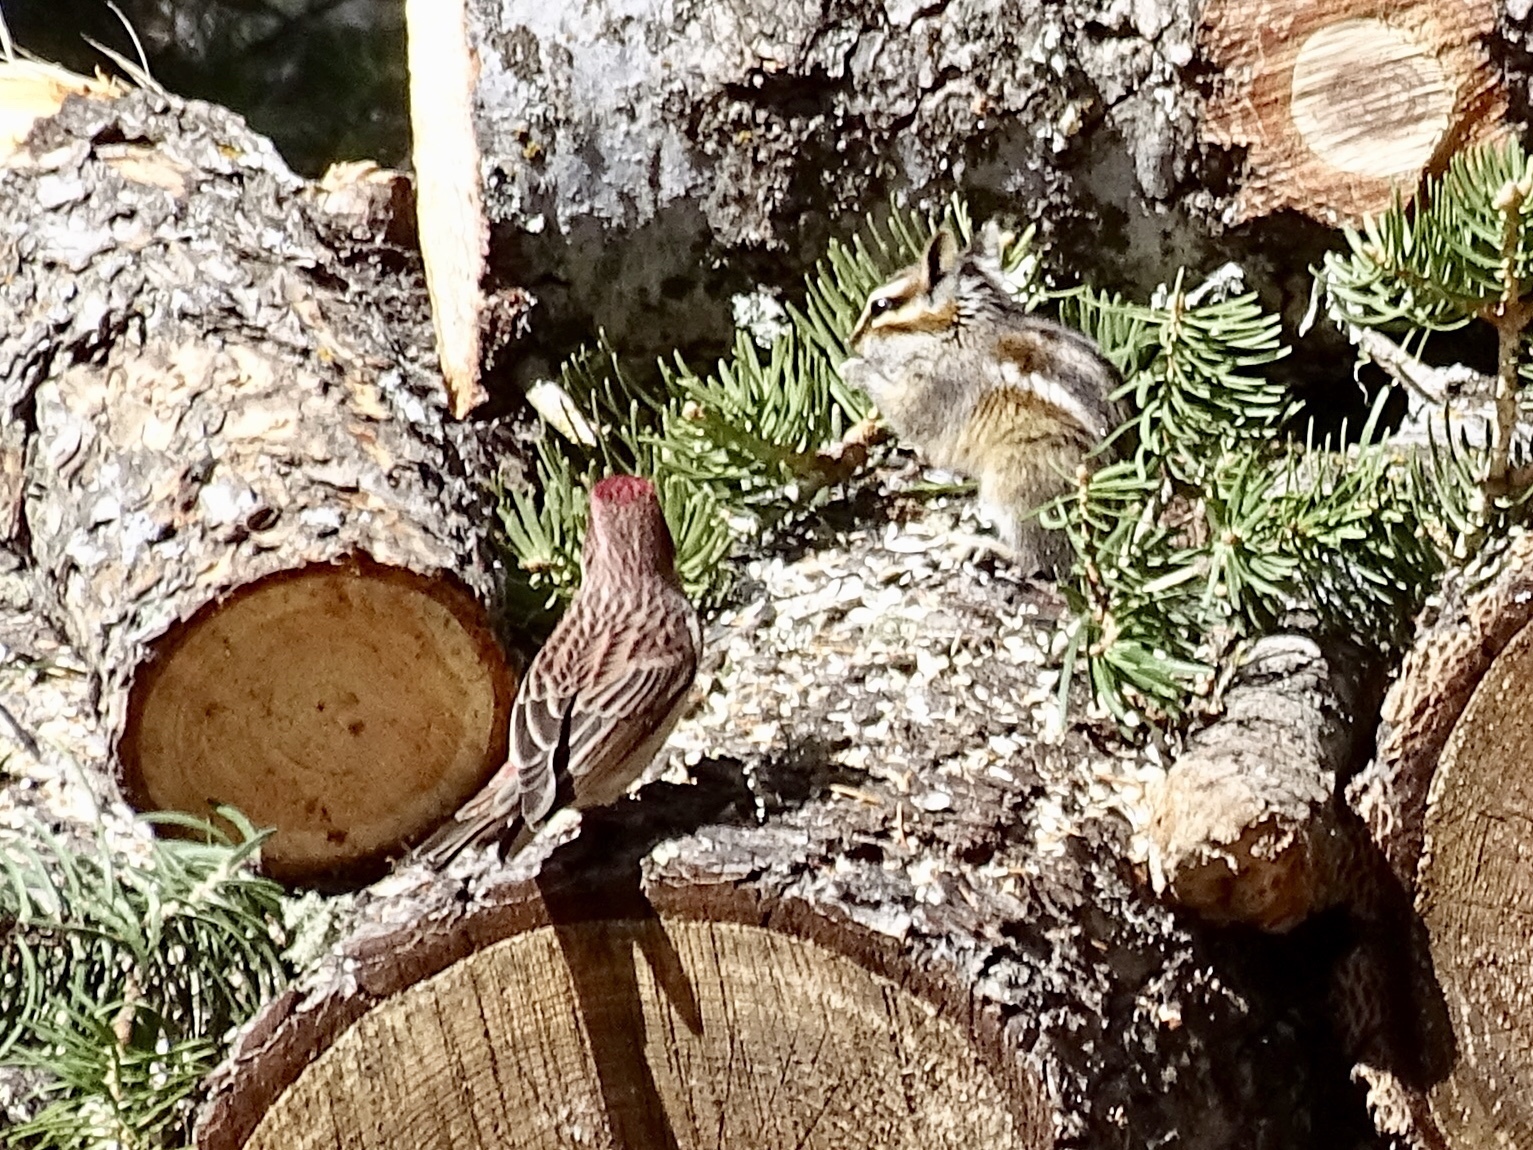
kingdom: Animalia
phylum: Chordata
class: Aves
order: Passeriformes
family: Fringillidae
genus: Haemorhous
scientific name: Haemorhous cassinii
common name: Cassin's finch
